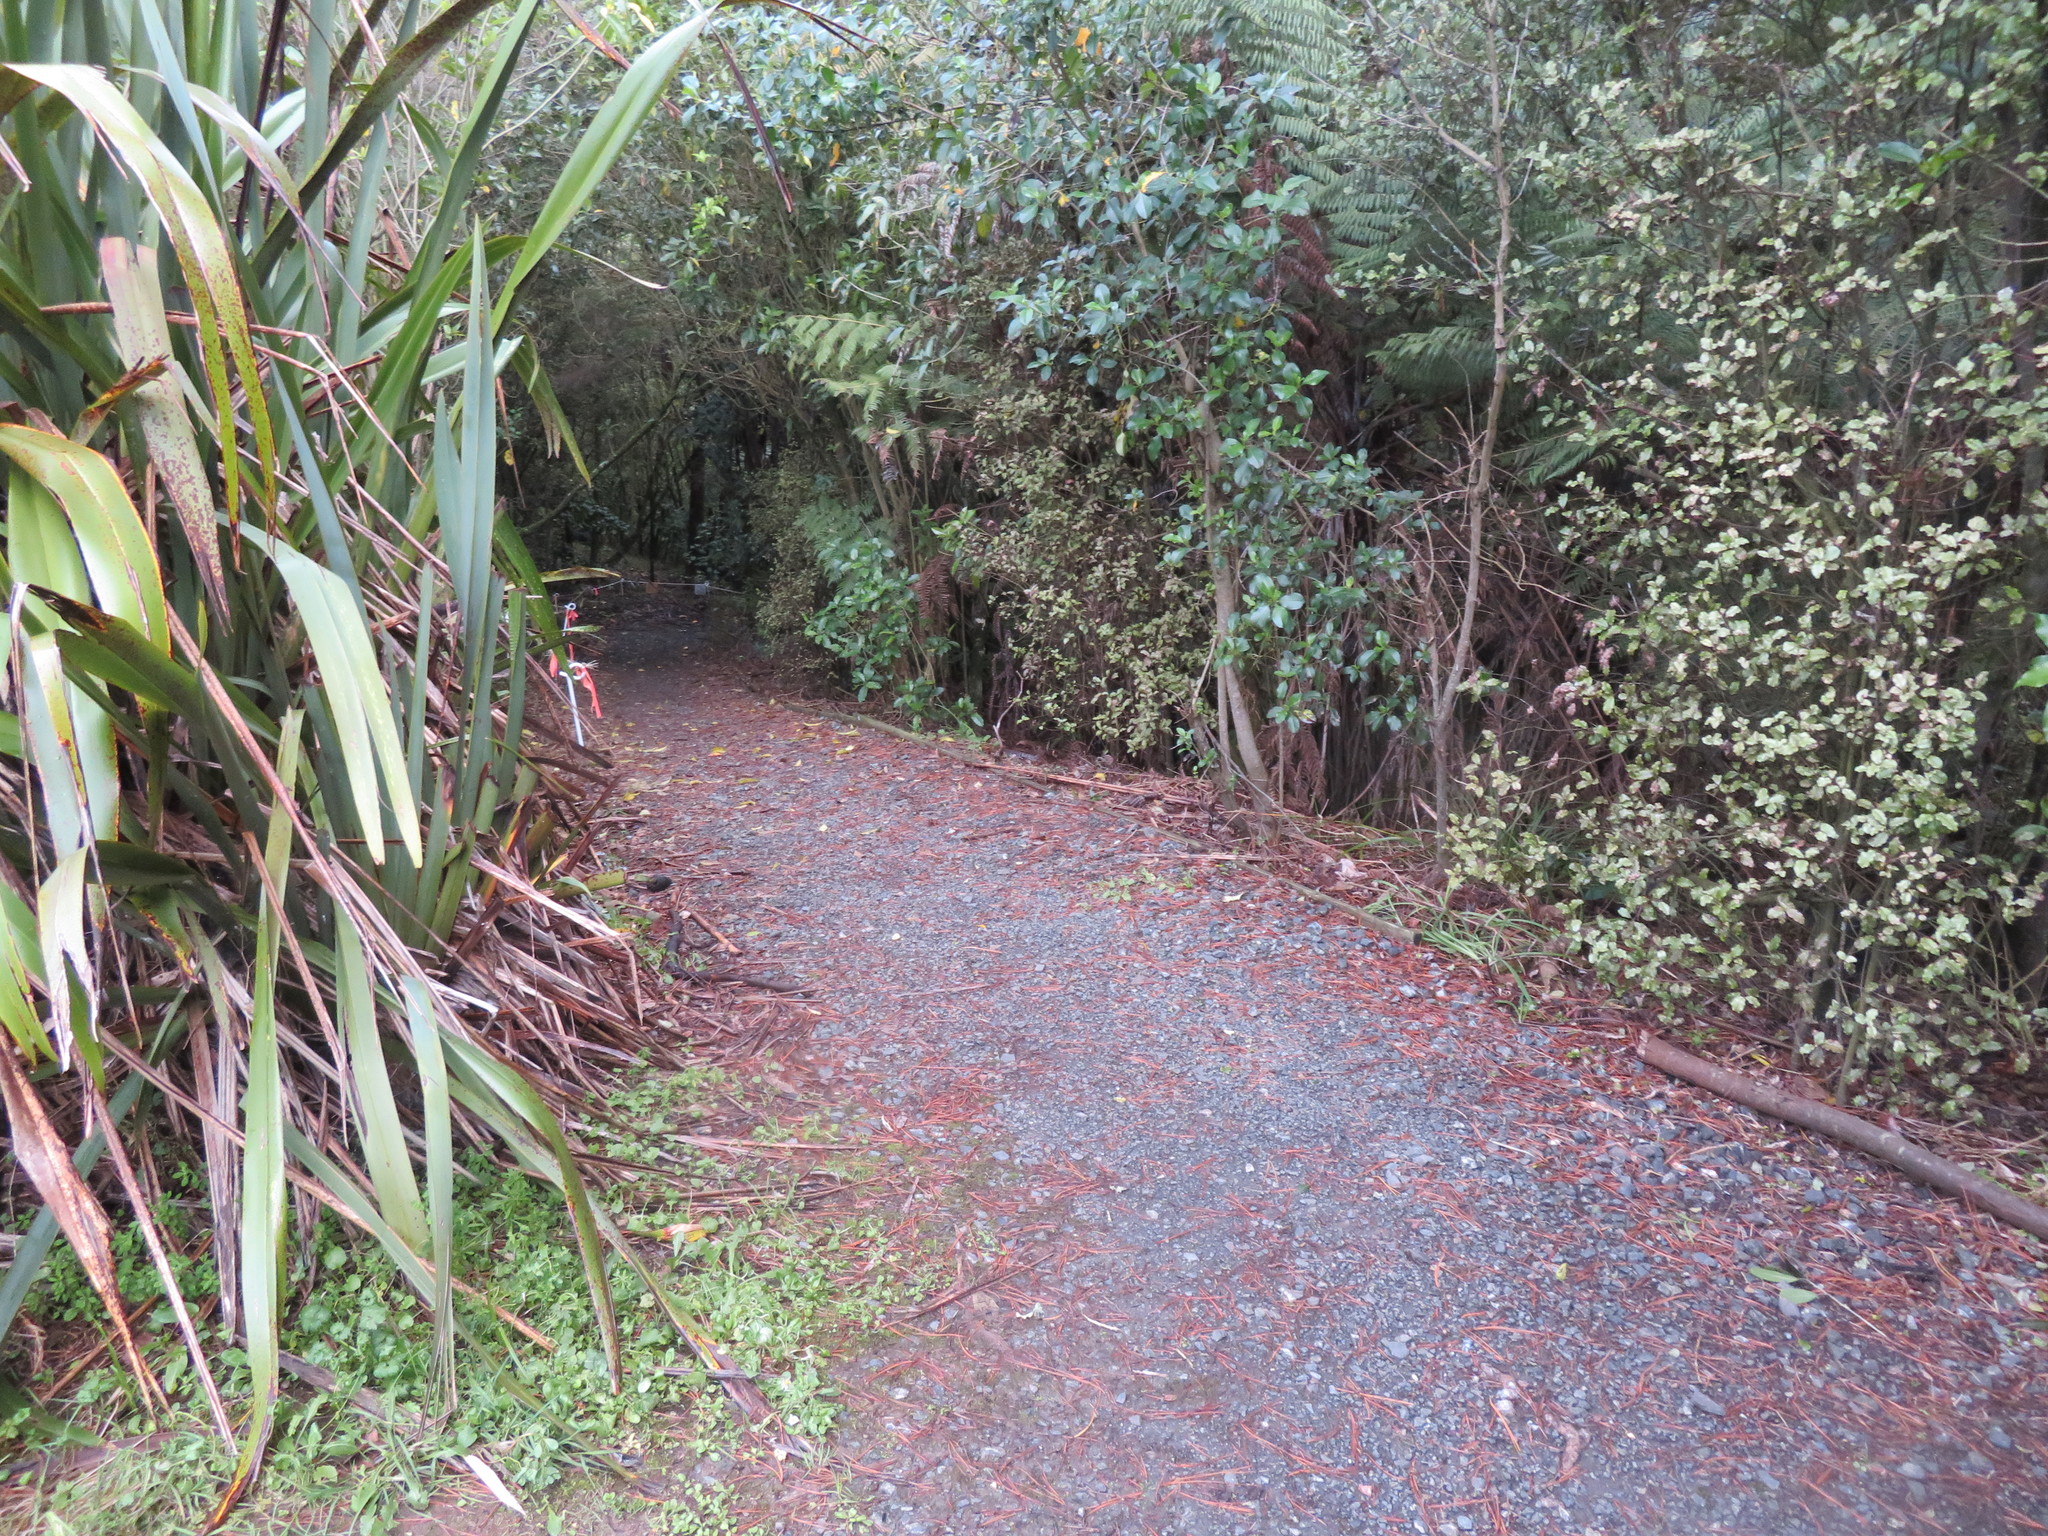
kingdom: Plantae
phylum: Tracheophyta
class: Magnoliopsida
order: Ericales
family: Primulaceae
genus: Myrsine
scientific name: Myrsine australis
